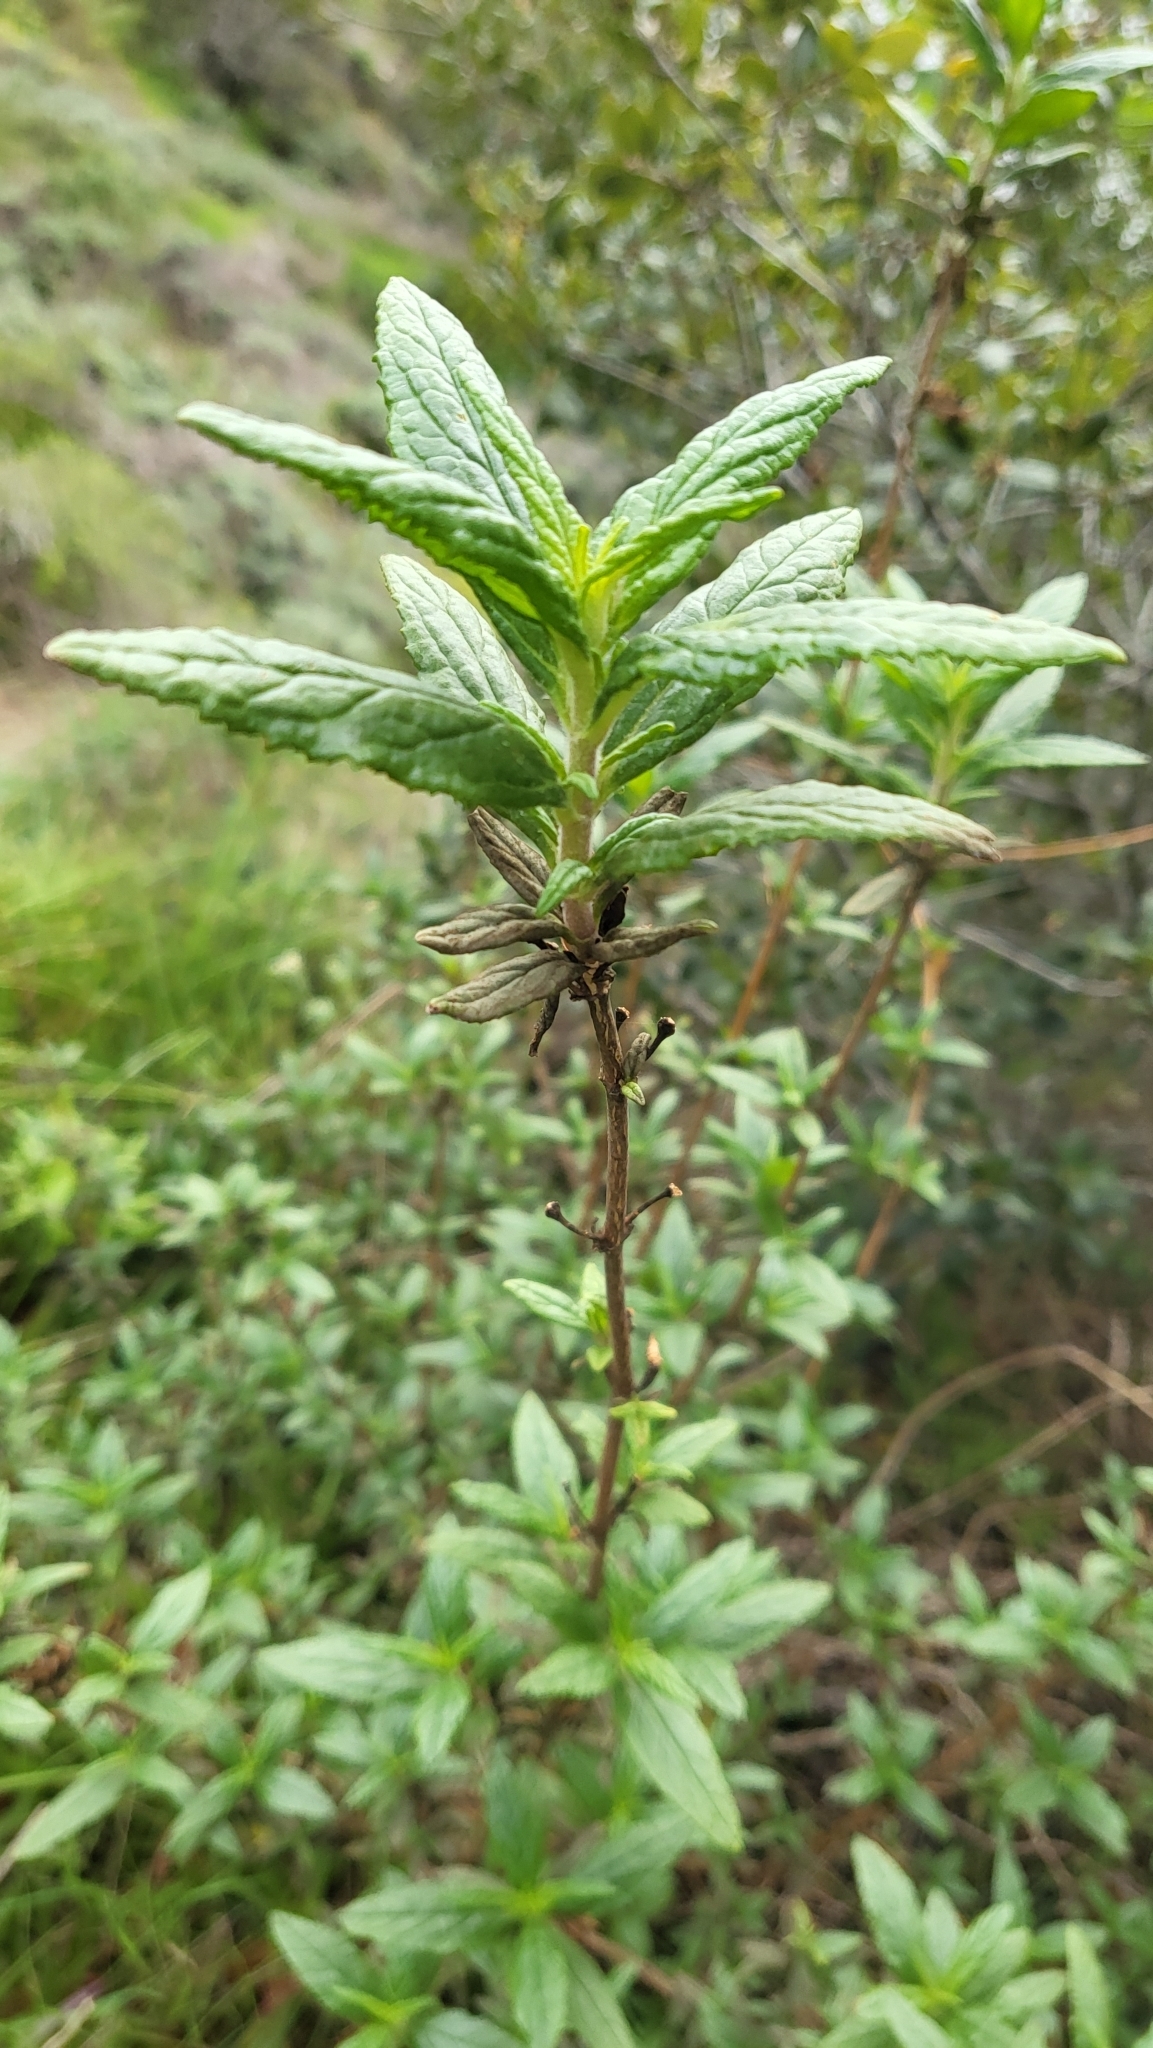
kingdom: Plantae
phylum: Tracheophyta
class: Magnoliopsida
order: Lamiales
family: Phrymaceae
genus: Diplacus
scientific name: Diplacus aurantiacus
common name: Bush monkey-flower
